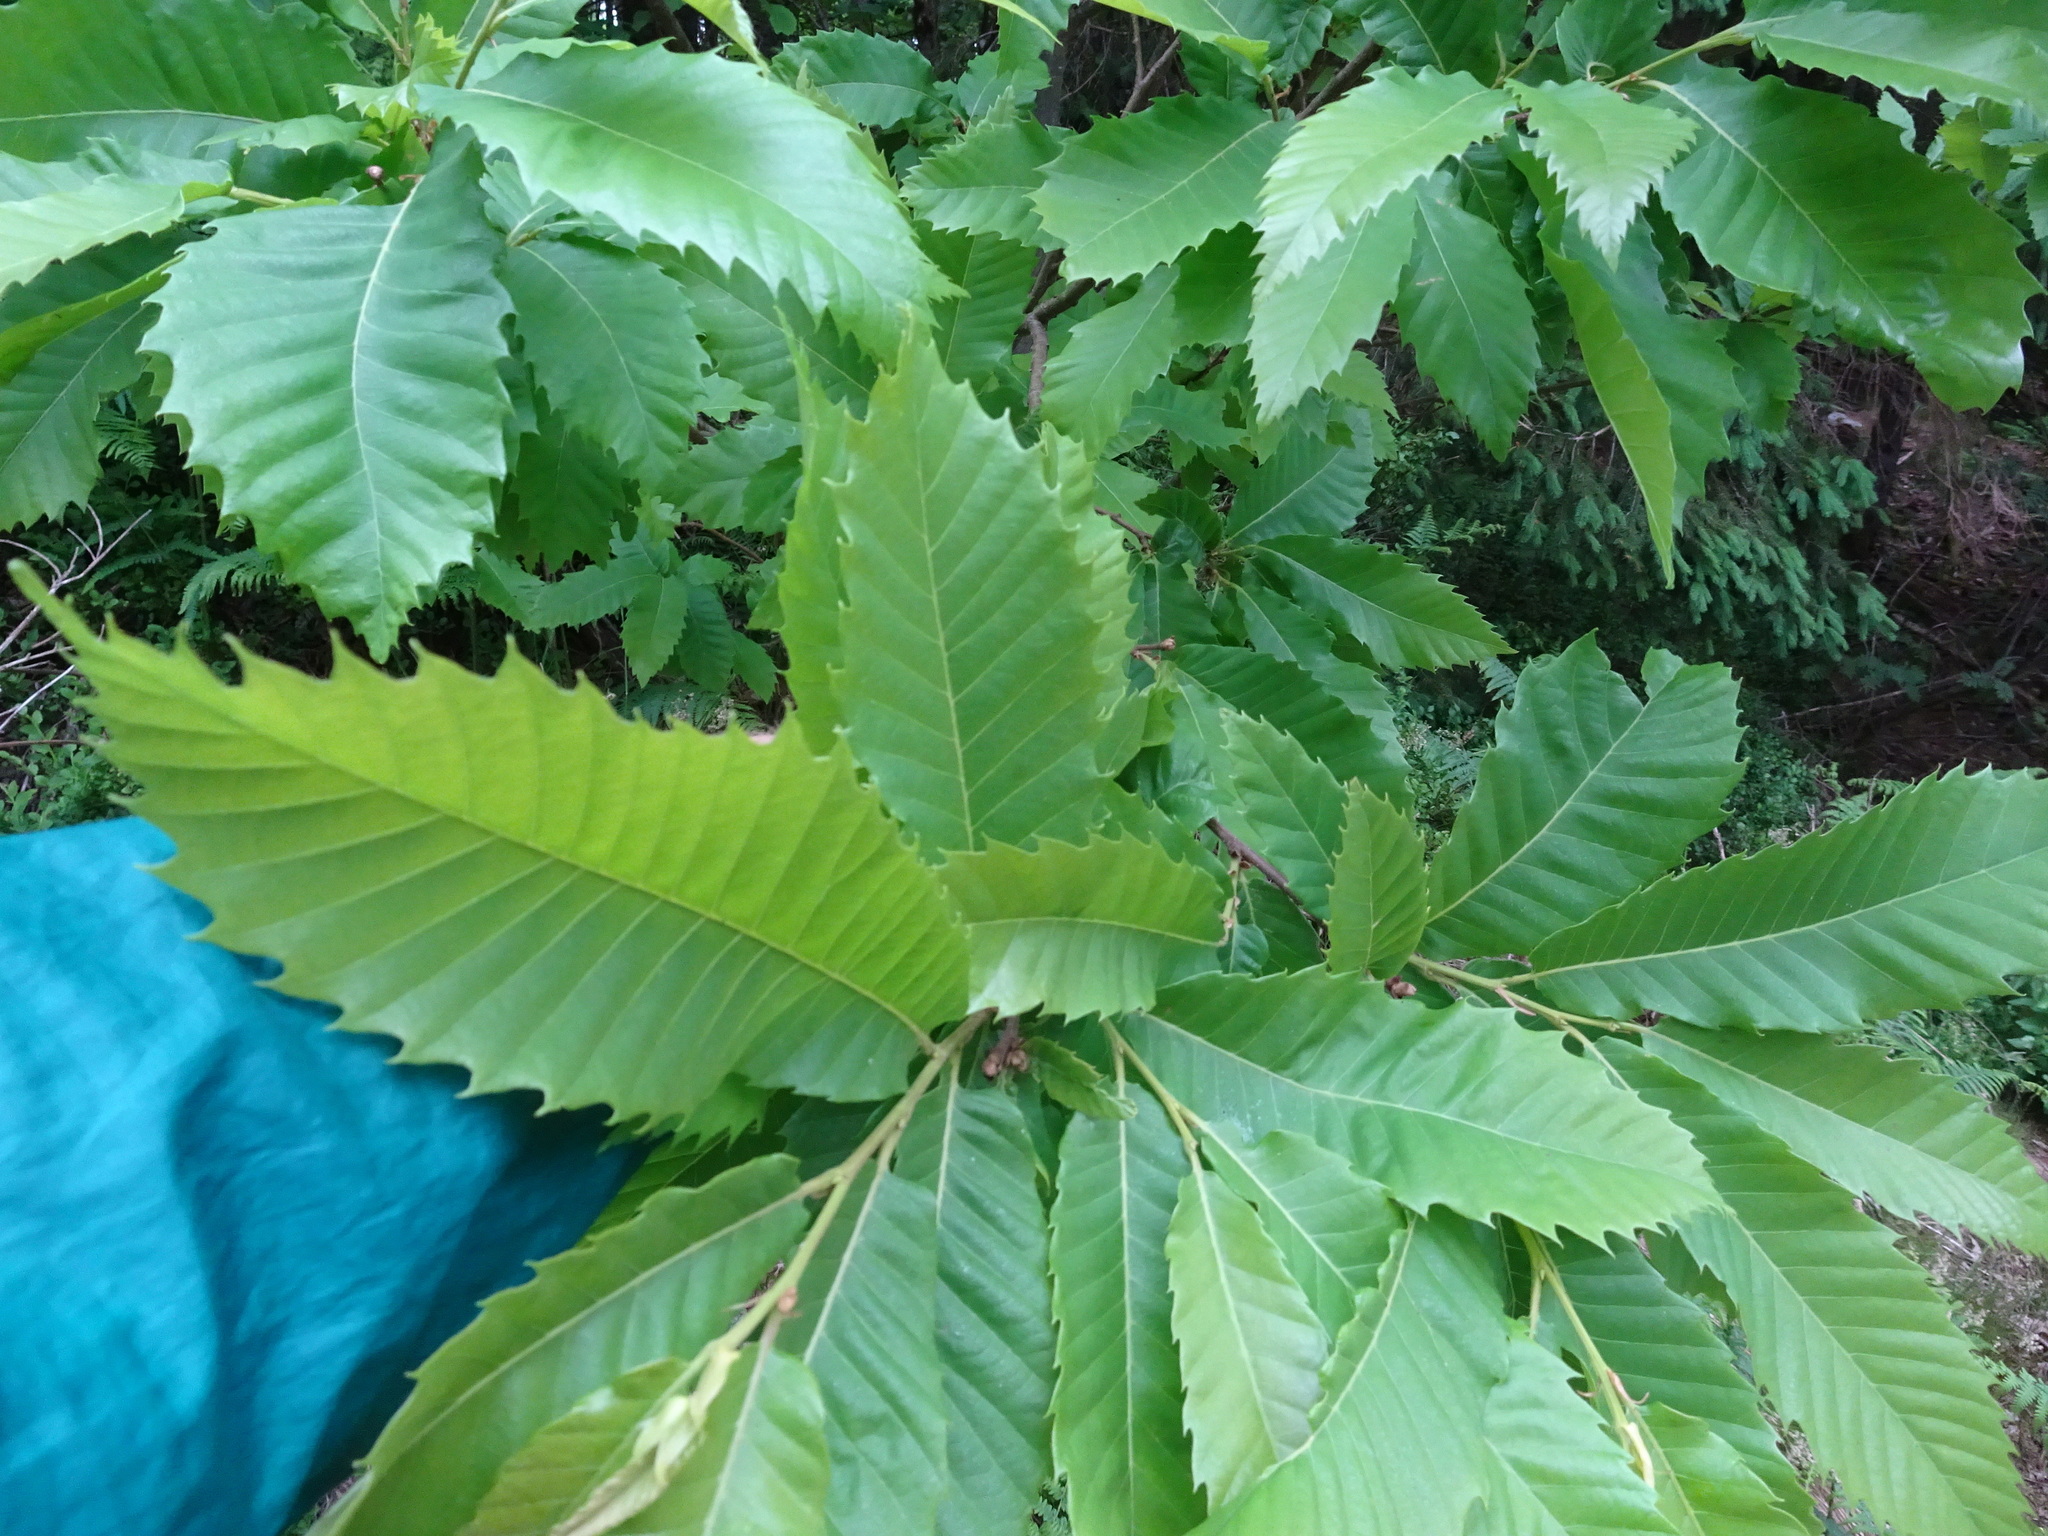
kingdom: Plantae
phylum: Tracheophyta
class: Magnoliopsida
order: Fagales
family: Fagaceae
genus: Castanea
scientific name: Castanea sativa
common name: Sweet chestnut
